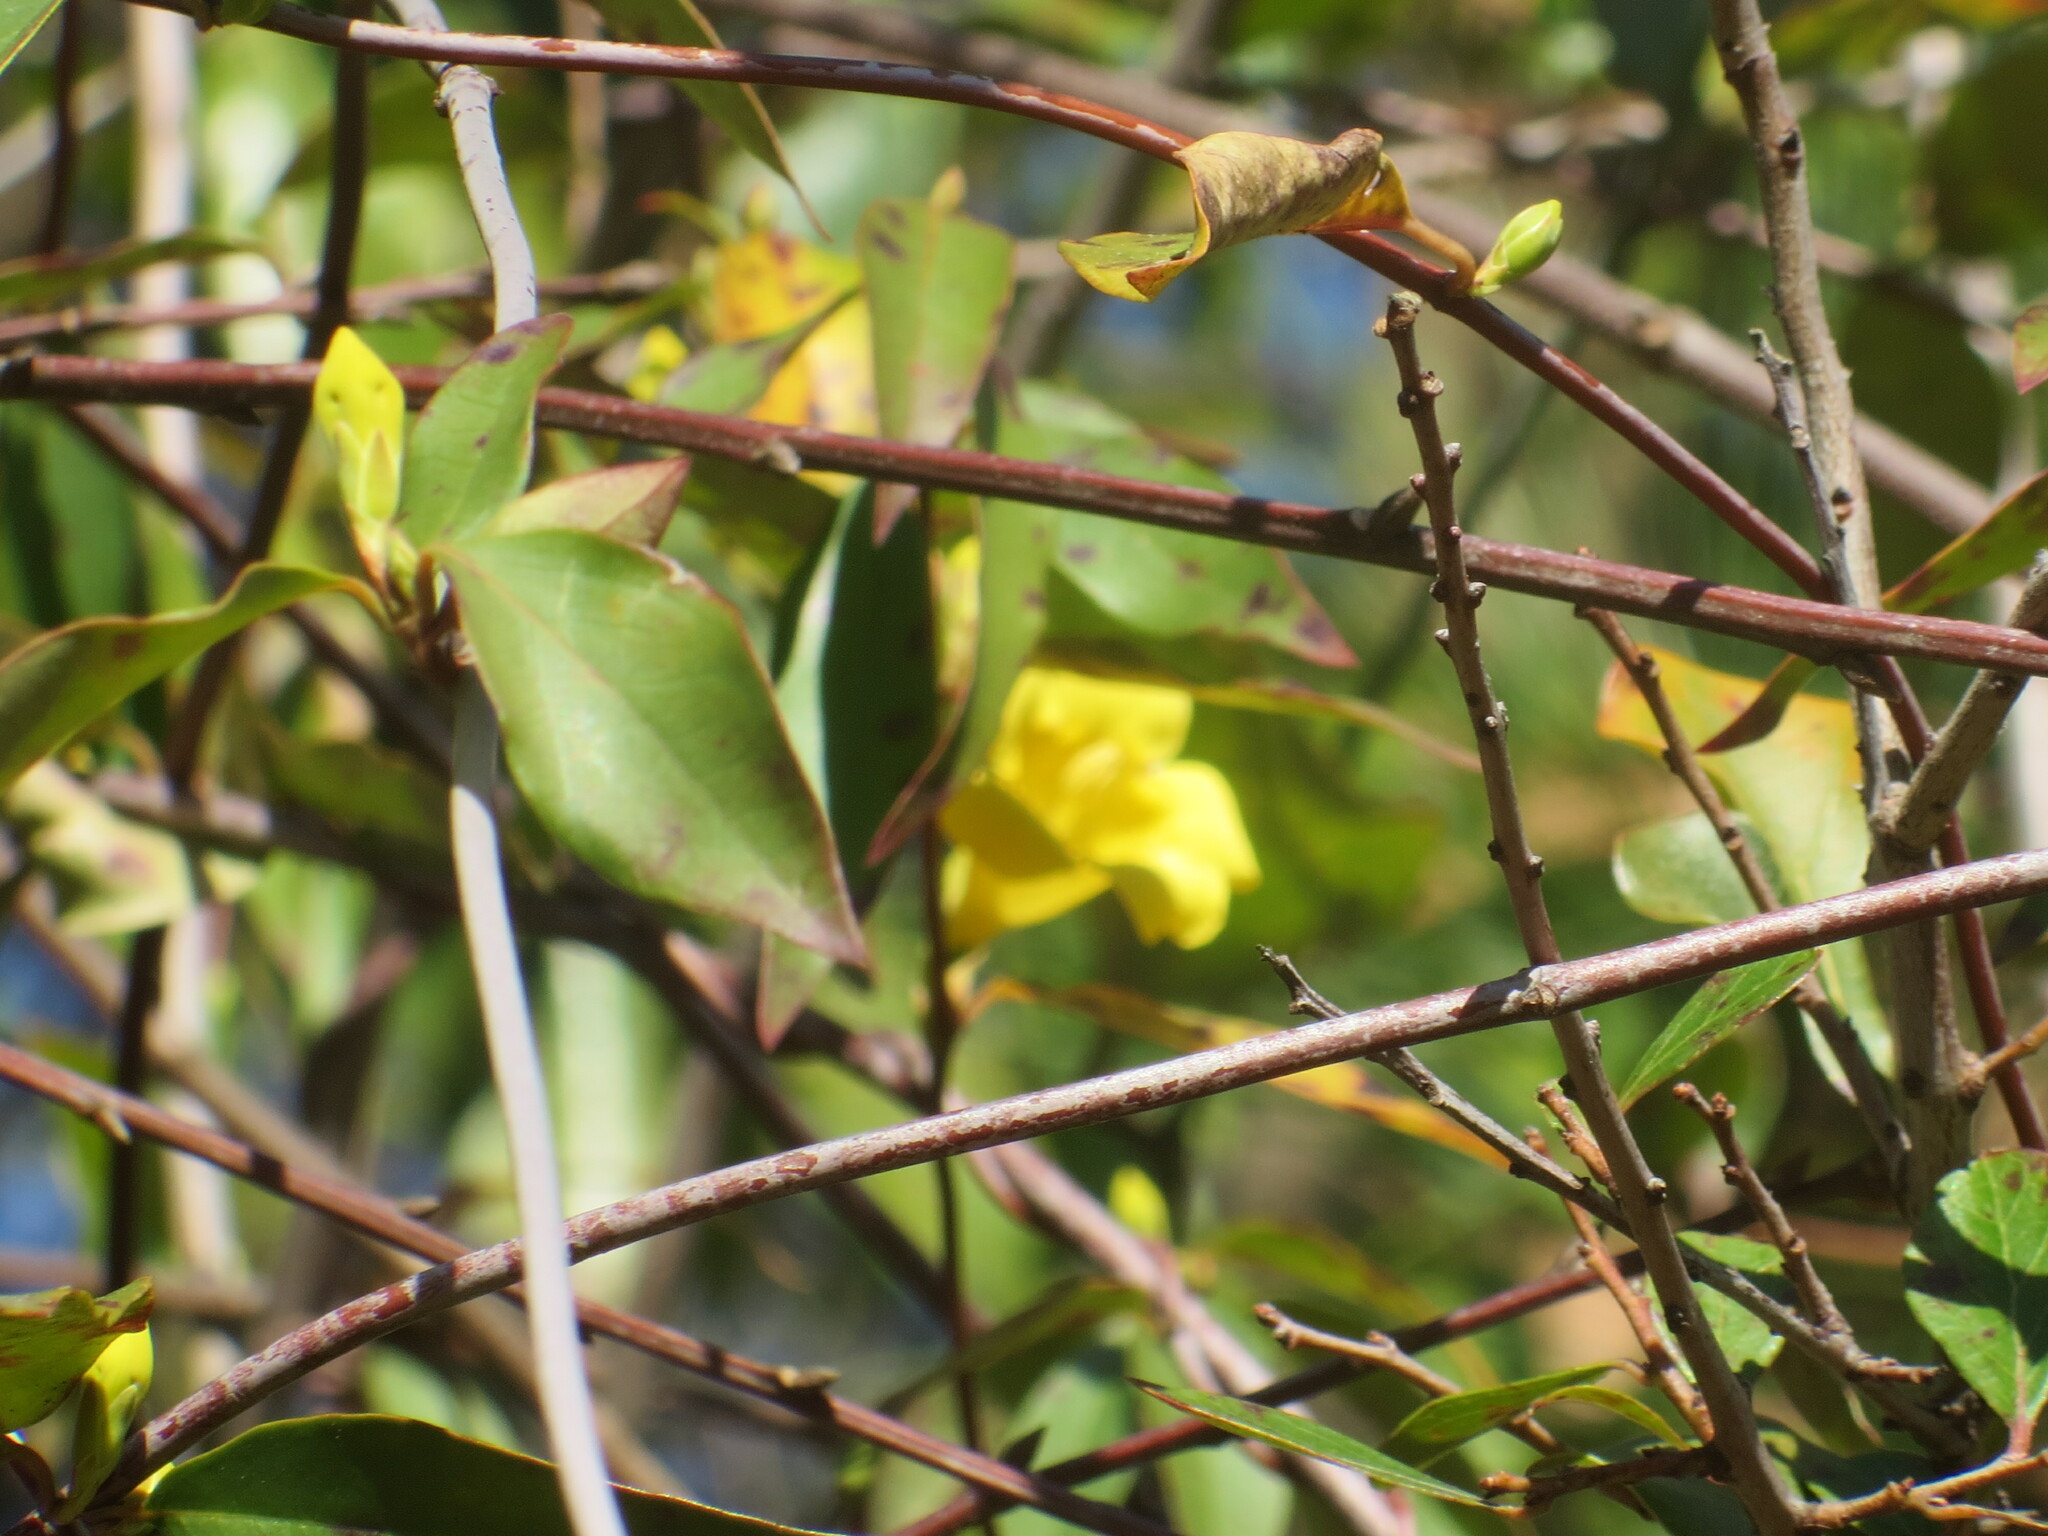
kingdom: Plantae
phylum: Tracheophyta
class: Magnoliopsida
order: Gentianales
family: Gelsemiaceae
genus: Gelsemium
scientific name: Gelsemium sempervirens
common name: Carolina-jasmine
